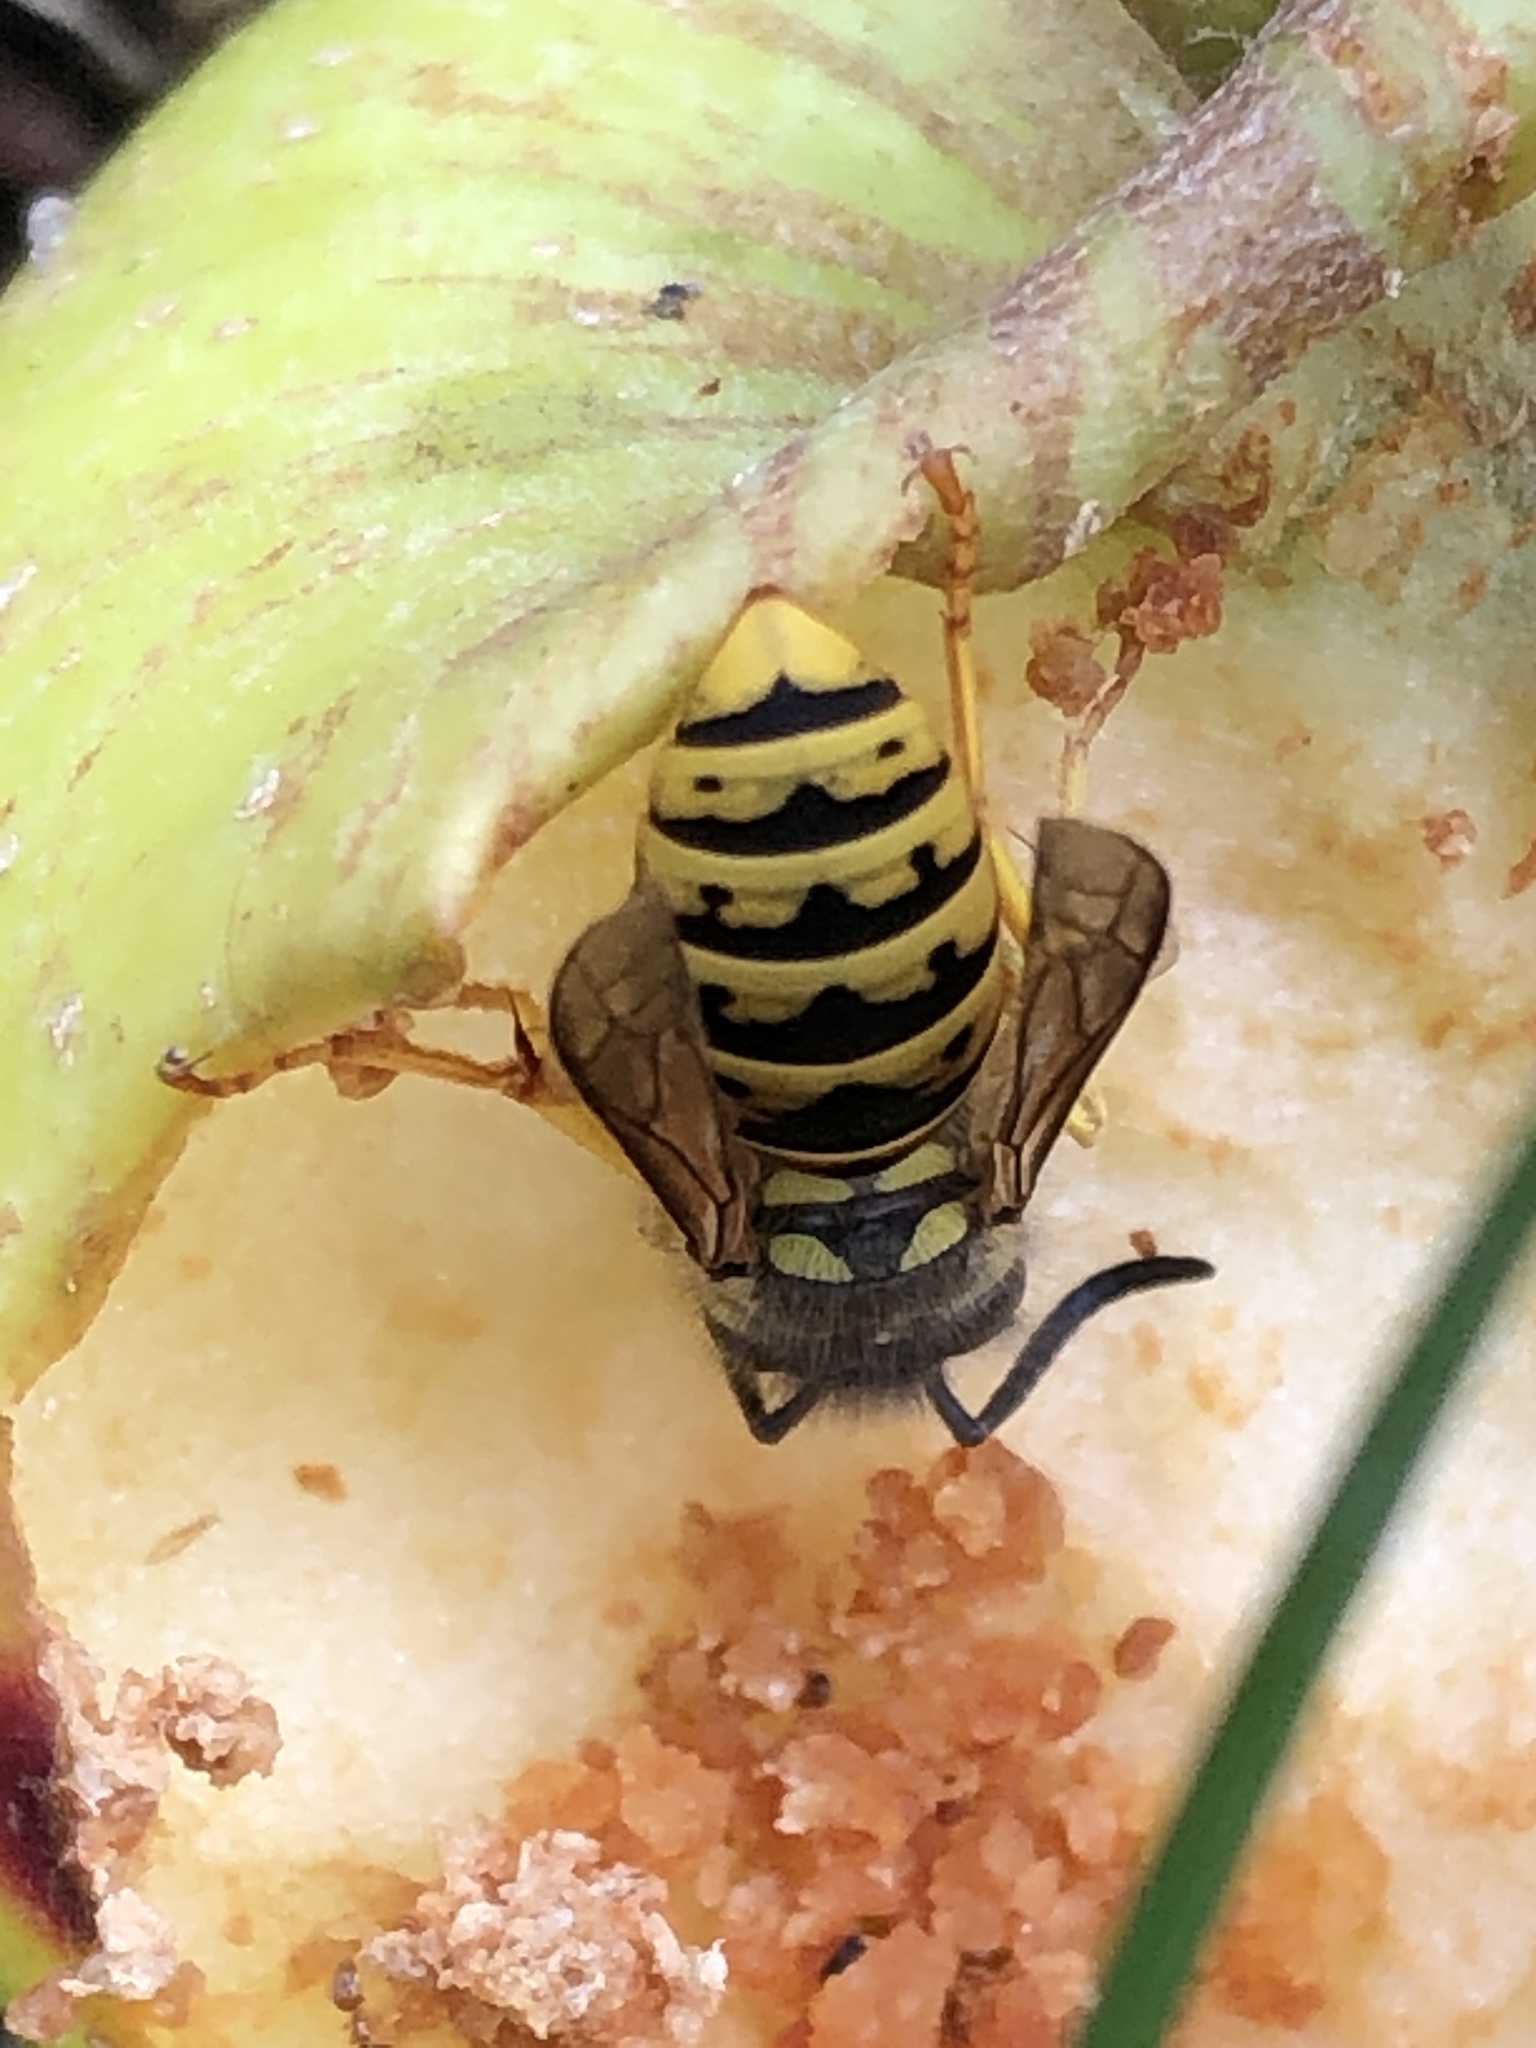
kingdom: Animalia
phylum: Arthropoda
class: Insecta
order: Hymenoptera
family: Vespidae
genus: Vespula
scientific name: Vespula germanica
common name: German wasp
